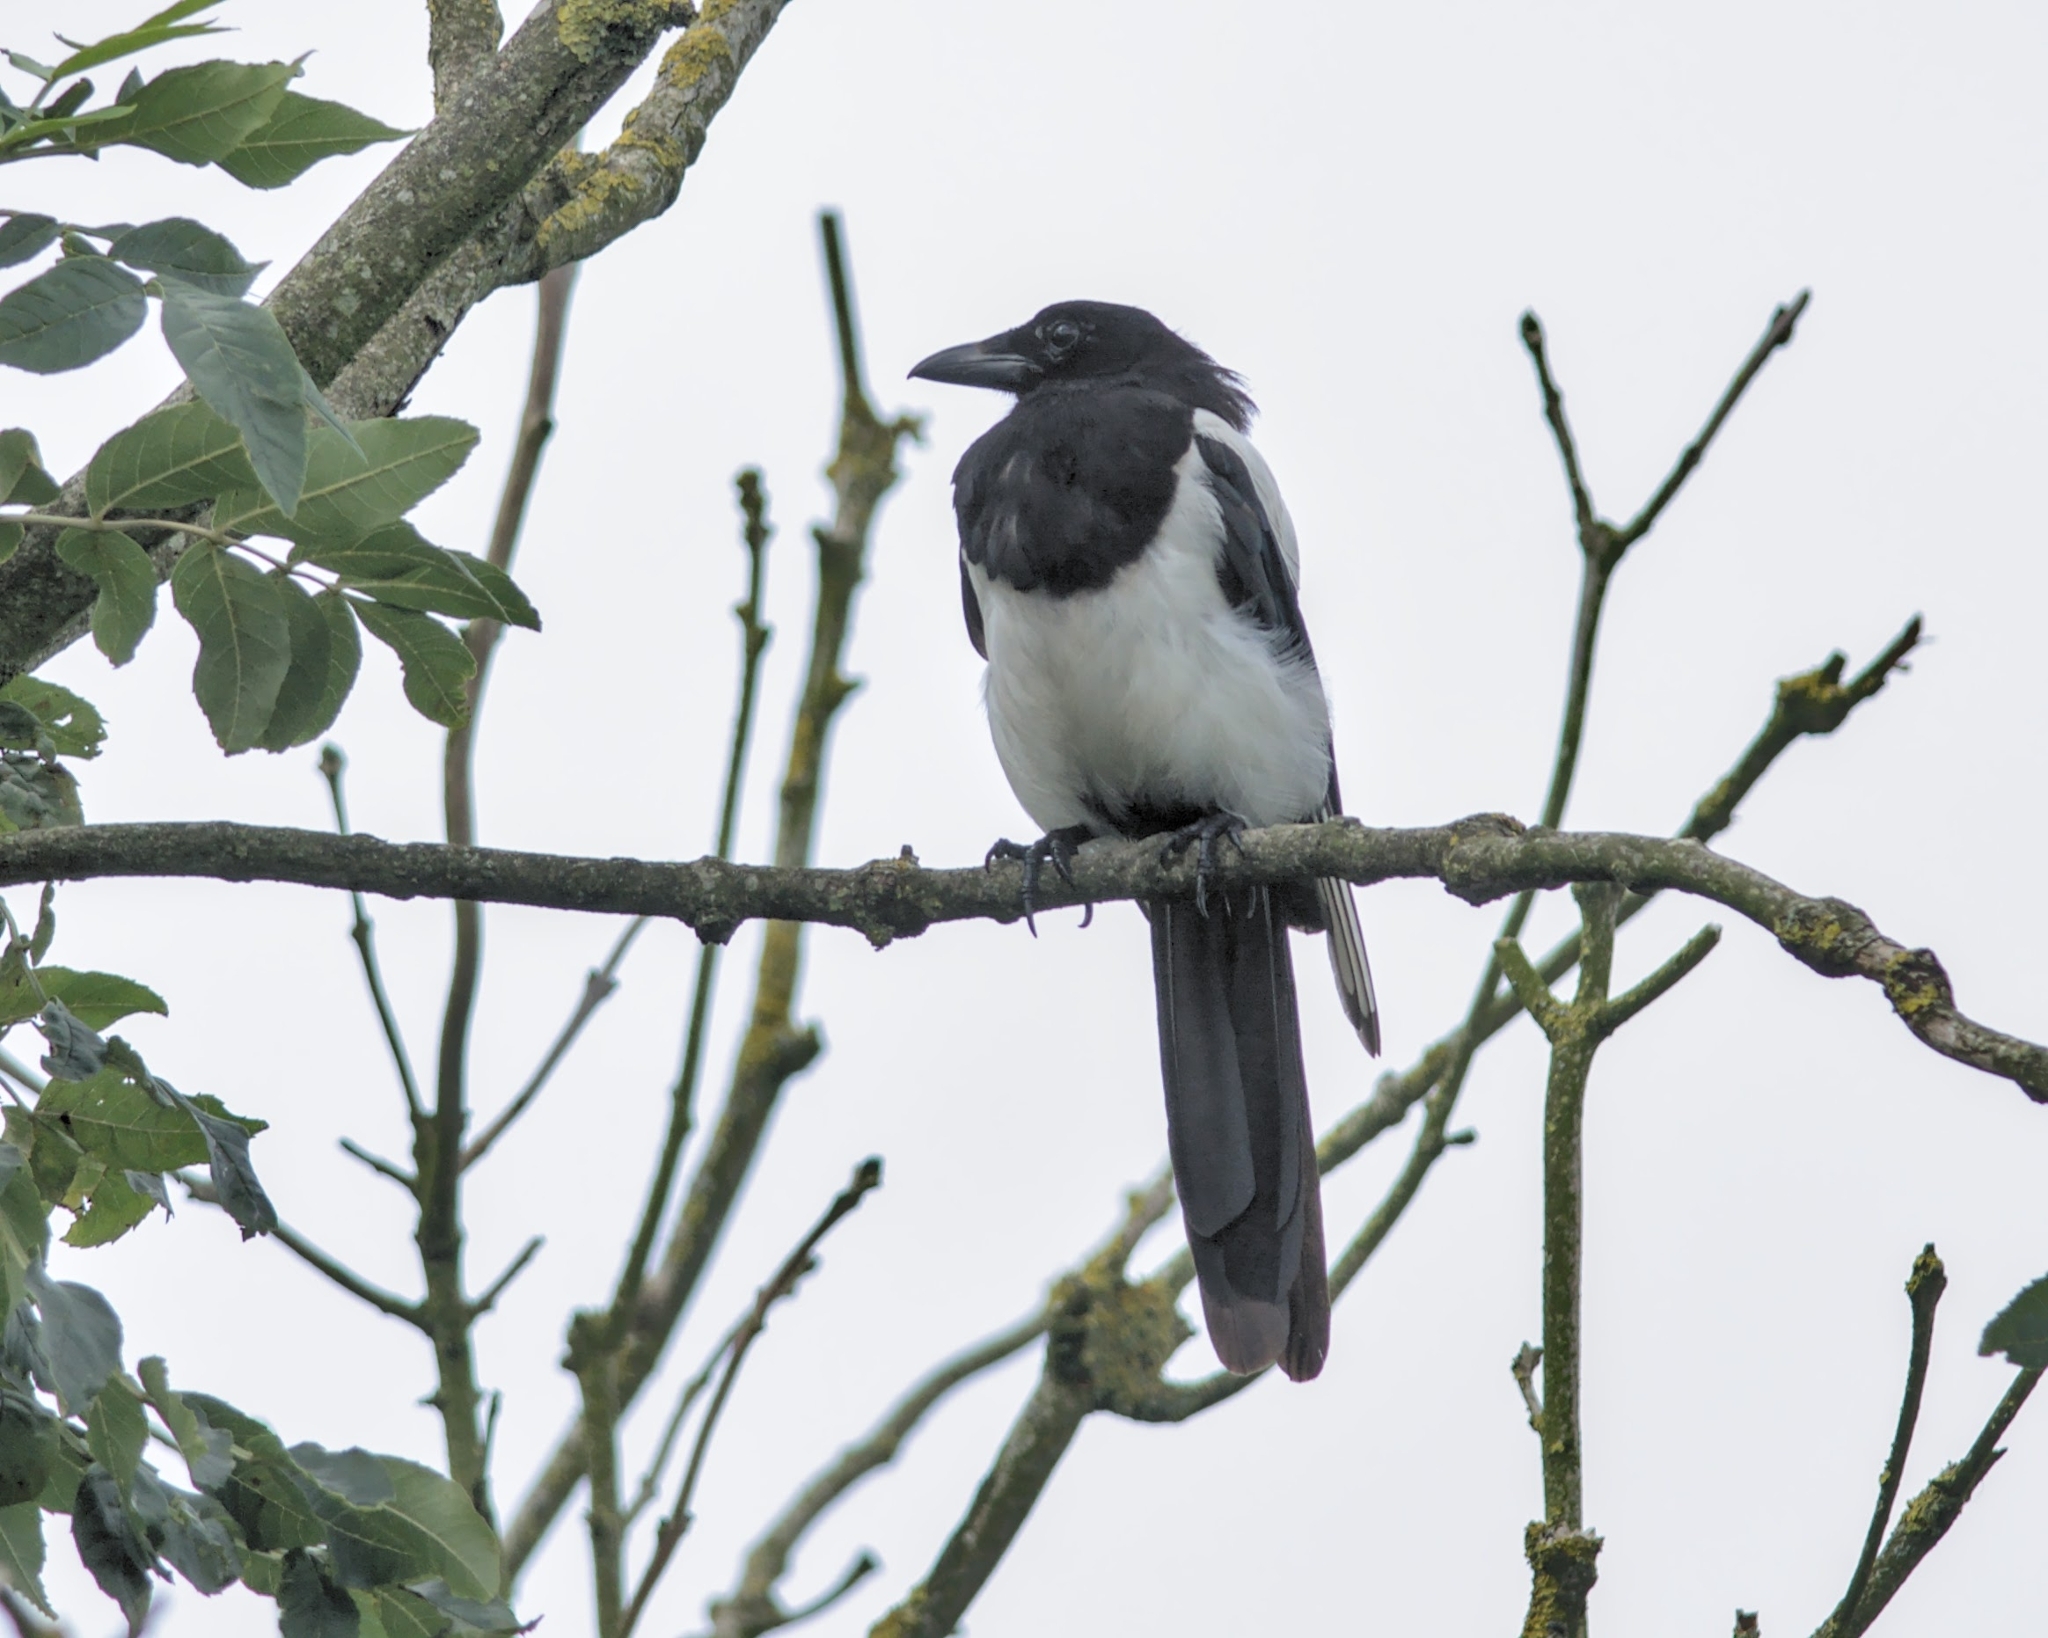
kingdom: Animalia
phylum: Chordata
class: Aves
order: Passeriformes
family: Corvidae
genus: Pica
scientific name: Pica pica
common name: Eurasian magpie
